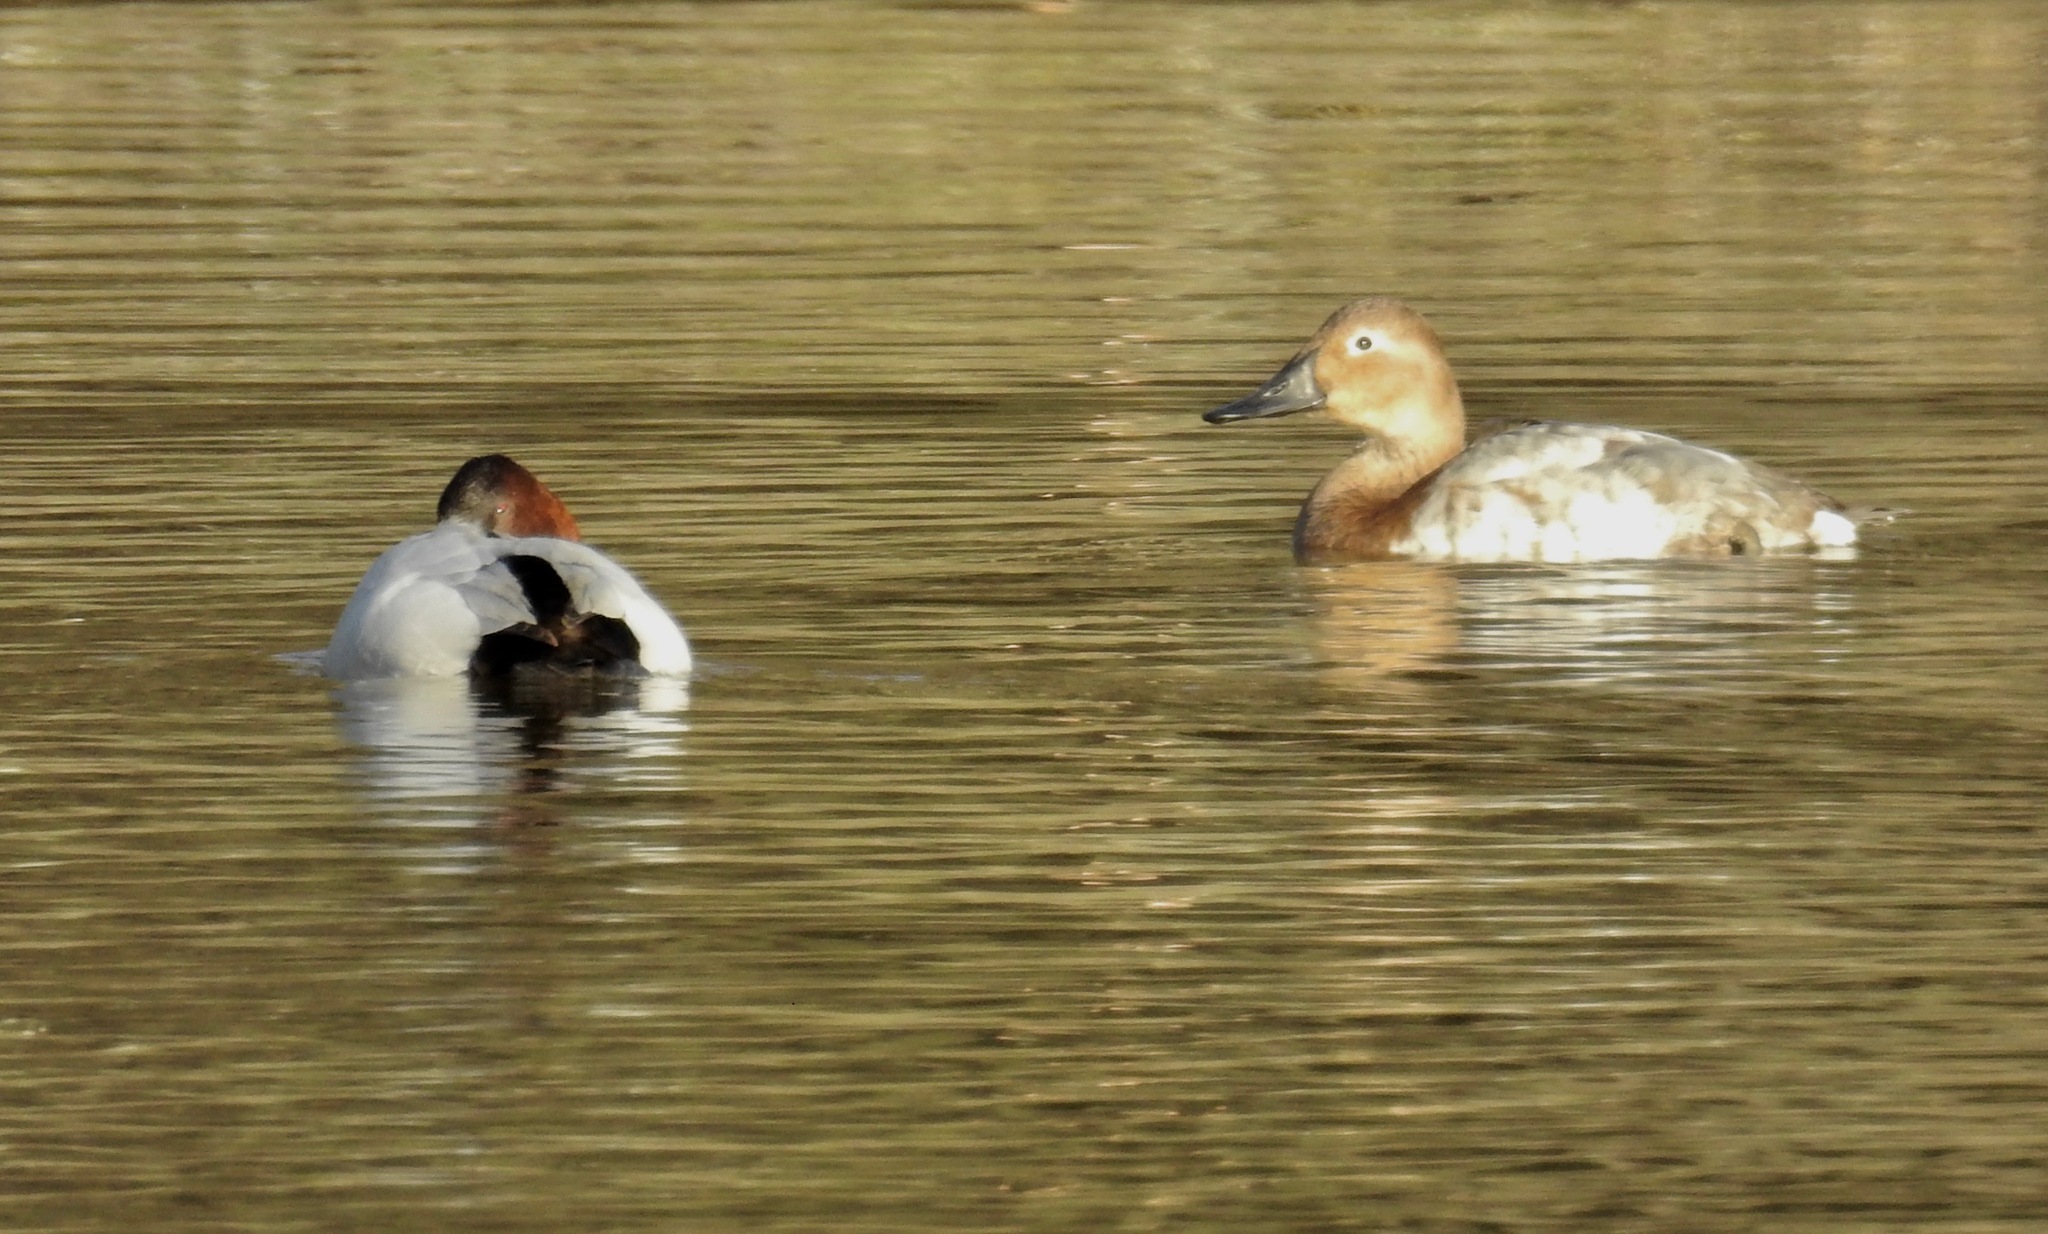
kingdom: Animalia
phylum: Chordata
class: Aves
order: Anseriformes
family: Anatidae
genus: Aythya
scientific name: Aythya valisineria
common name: Canvasback
